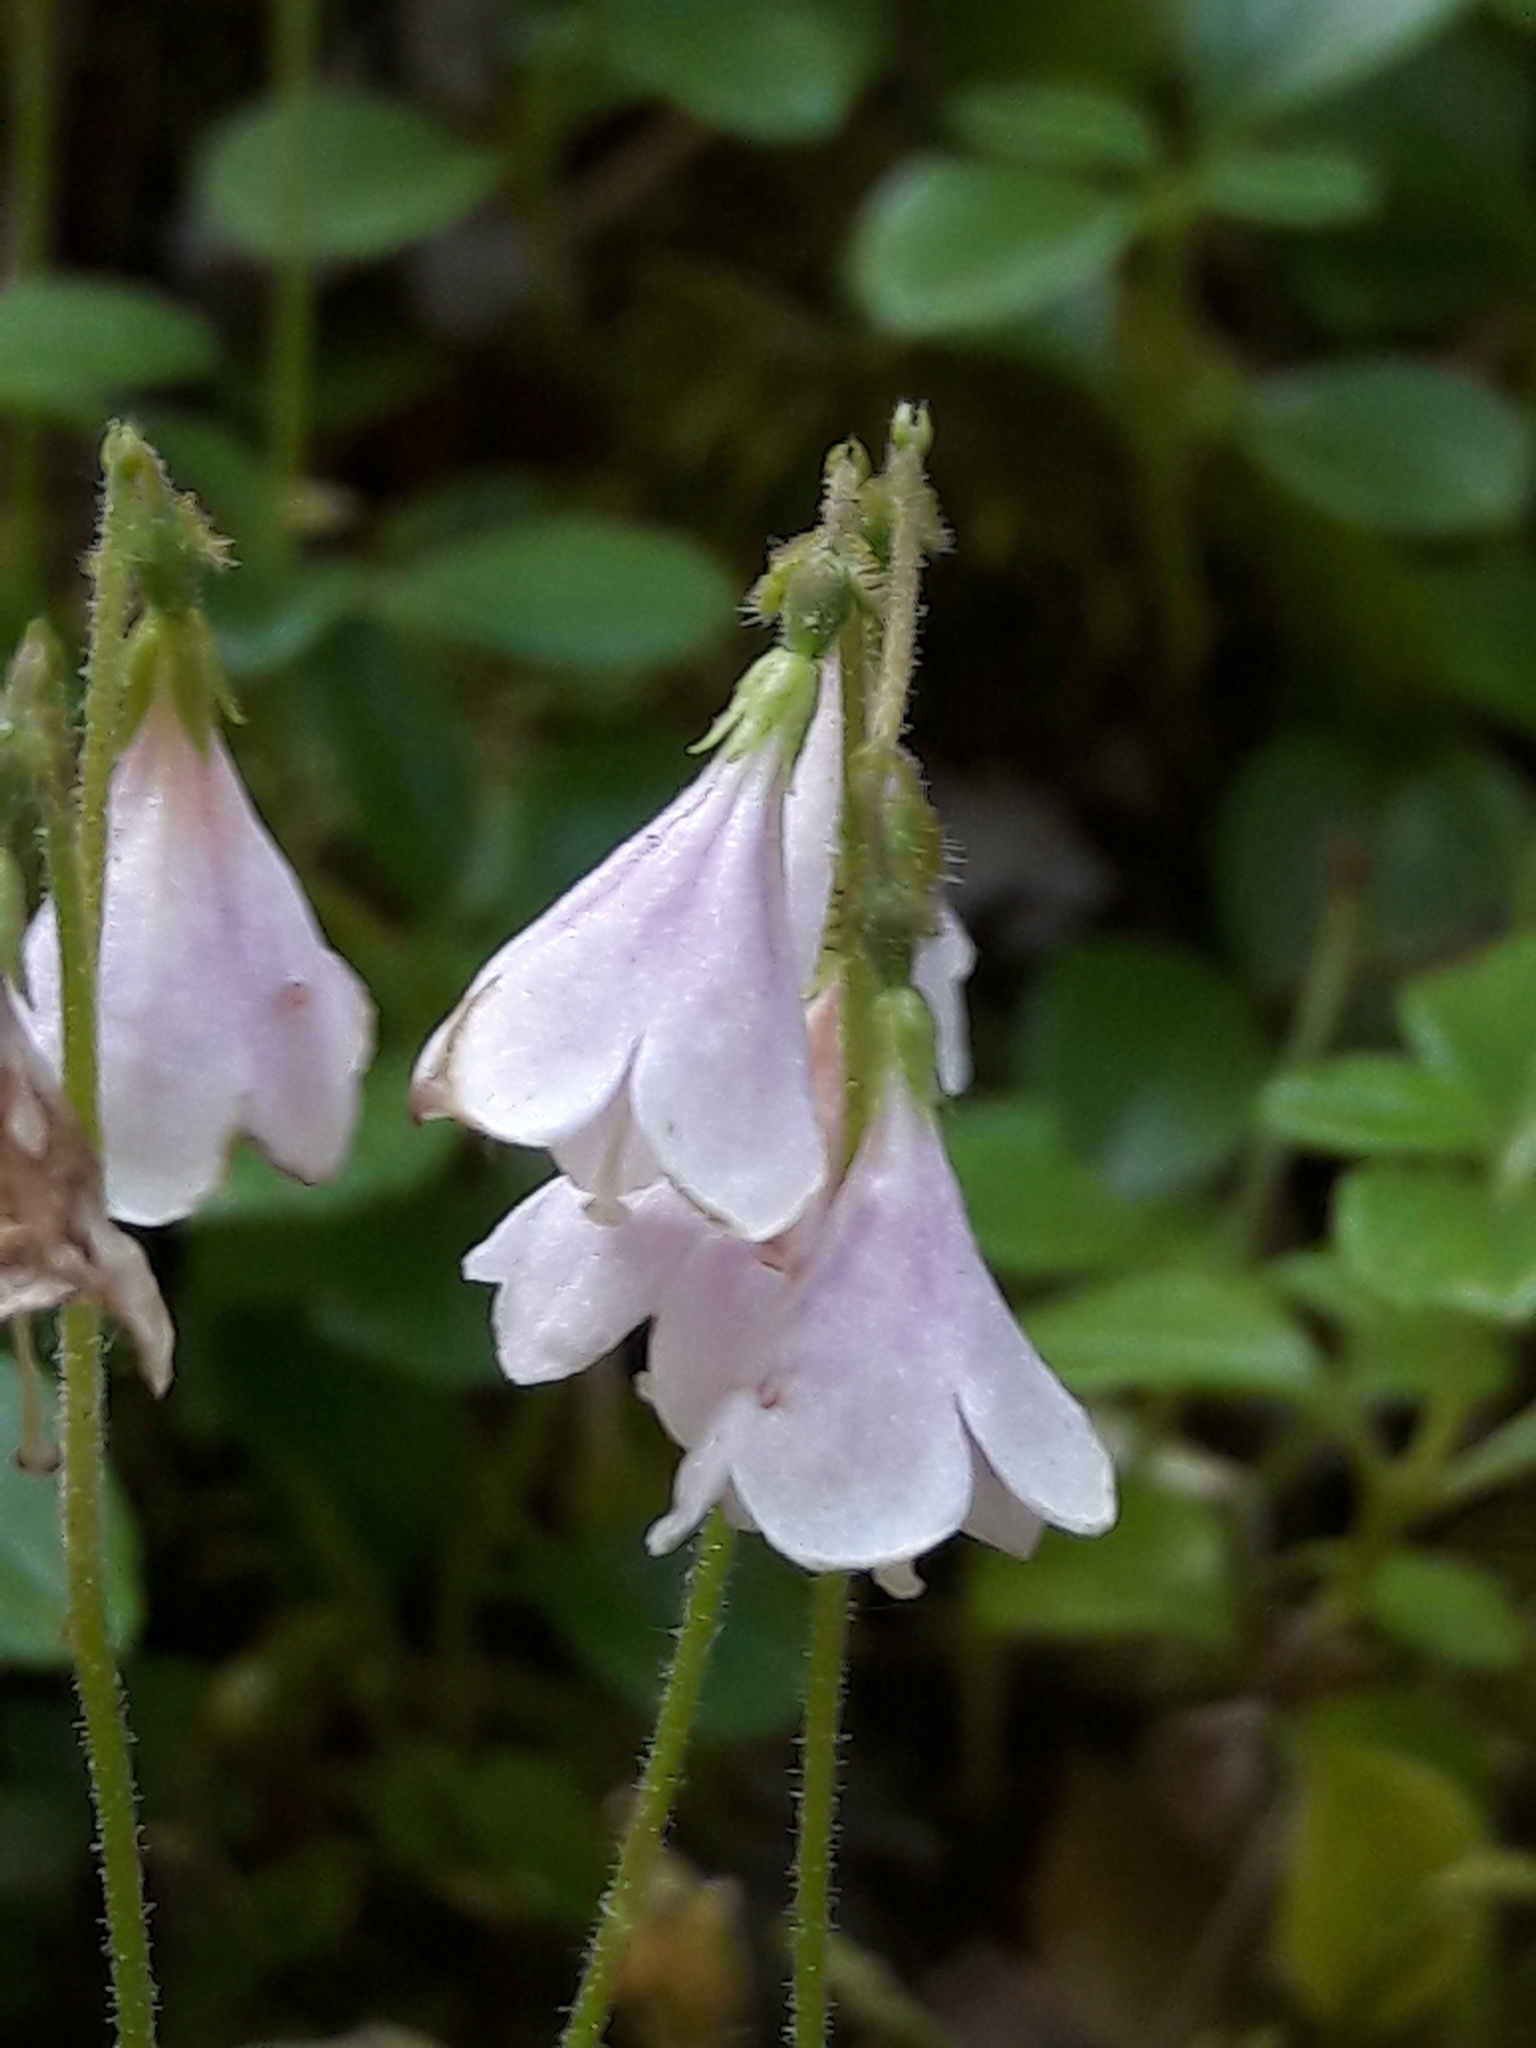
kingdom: Plantae
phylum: Tracheophyta
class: Magnoliopsida
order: Dipsacales
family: Caprifoliaceae
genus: Linnaea
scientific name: Linnaea borealis
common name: Twinflower
